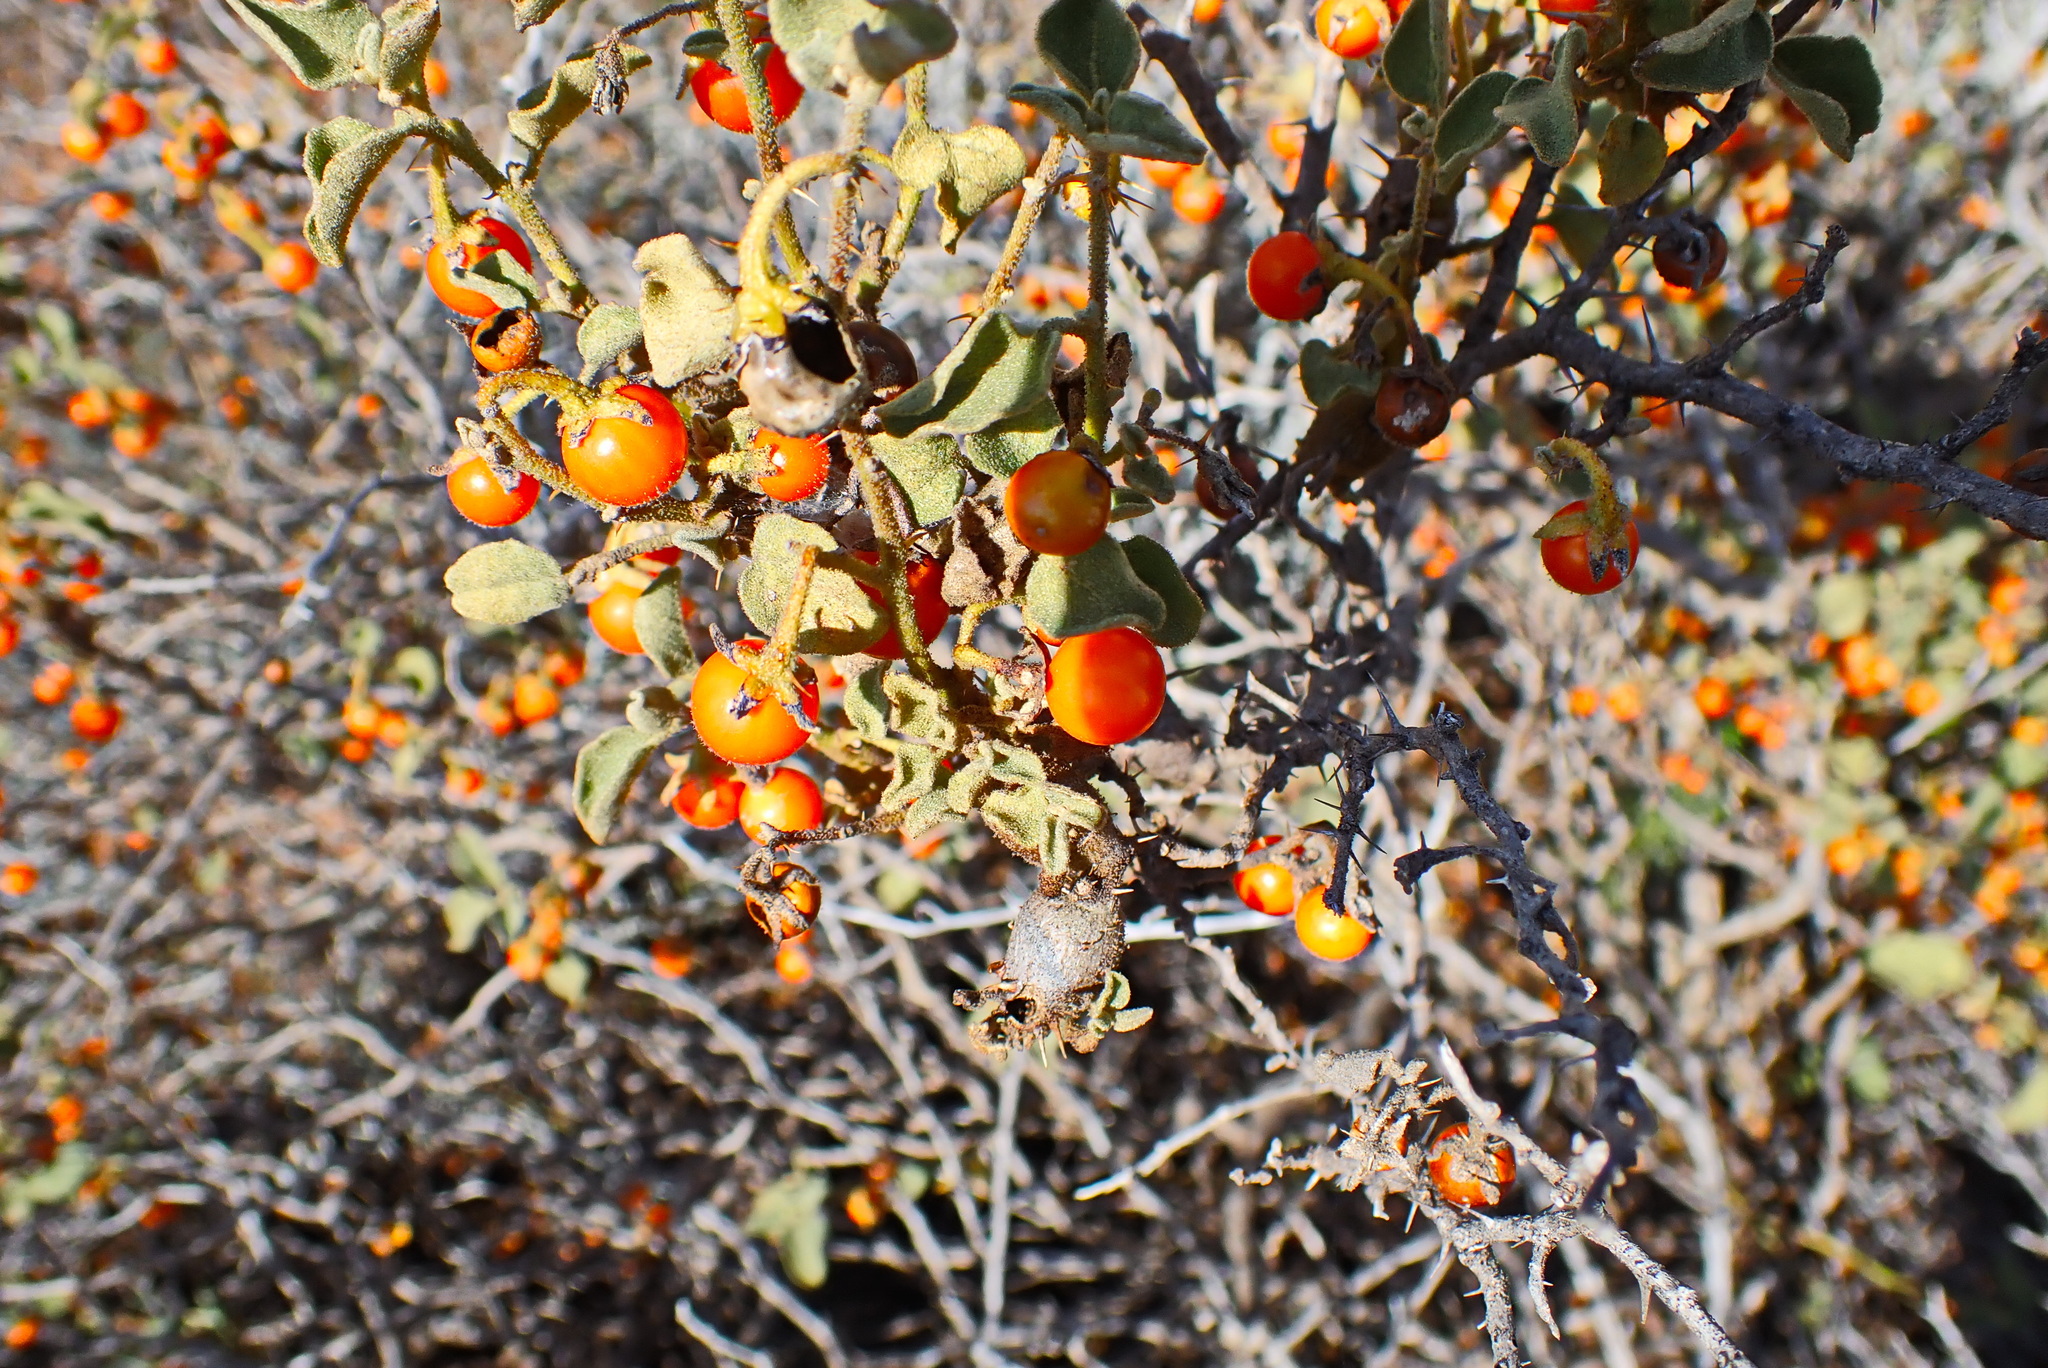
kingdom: Plantae
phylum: Tracheophyta
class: Magnoliopsida
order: Solanales
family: Solanaceae
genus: Solanum
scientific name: Solanum tomentosum
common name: Wild aubergine
